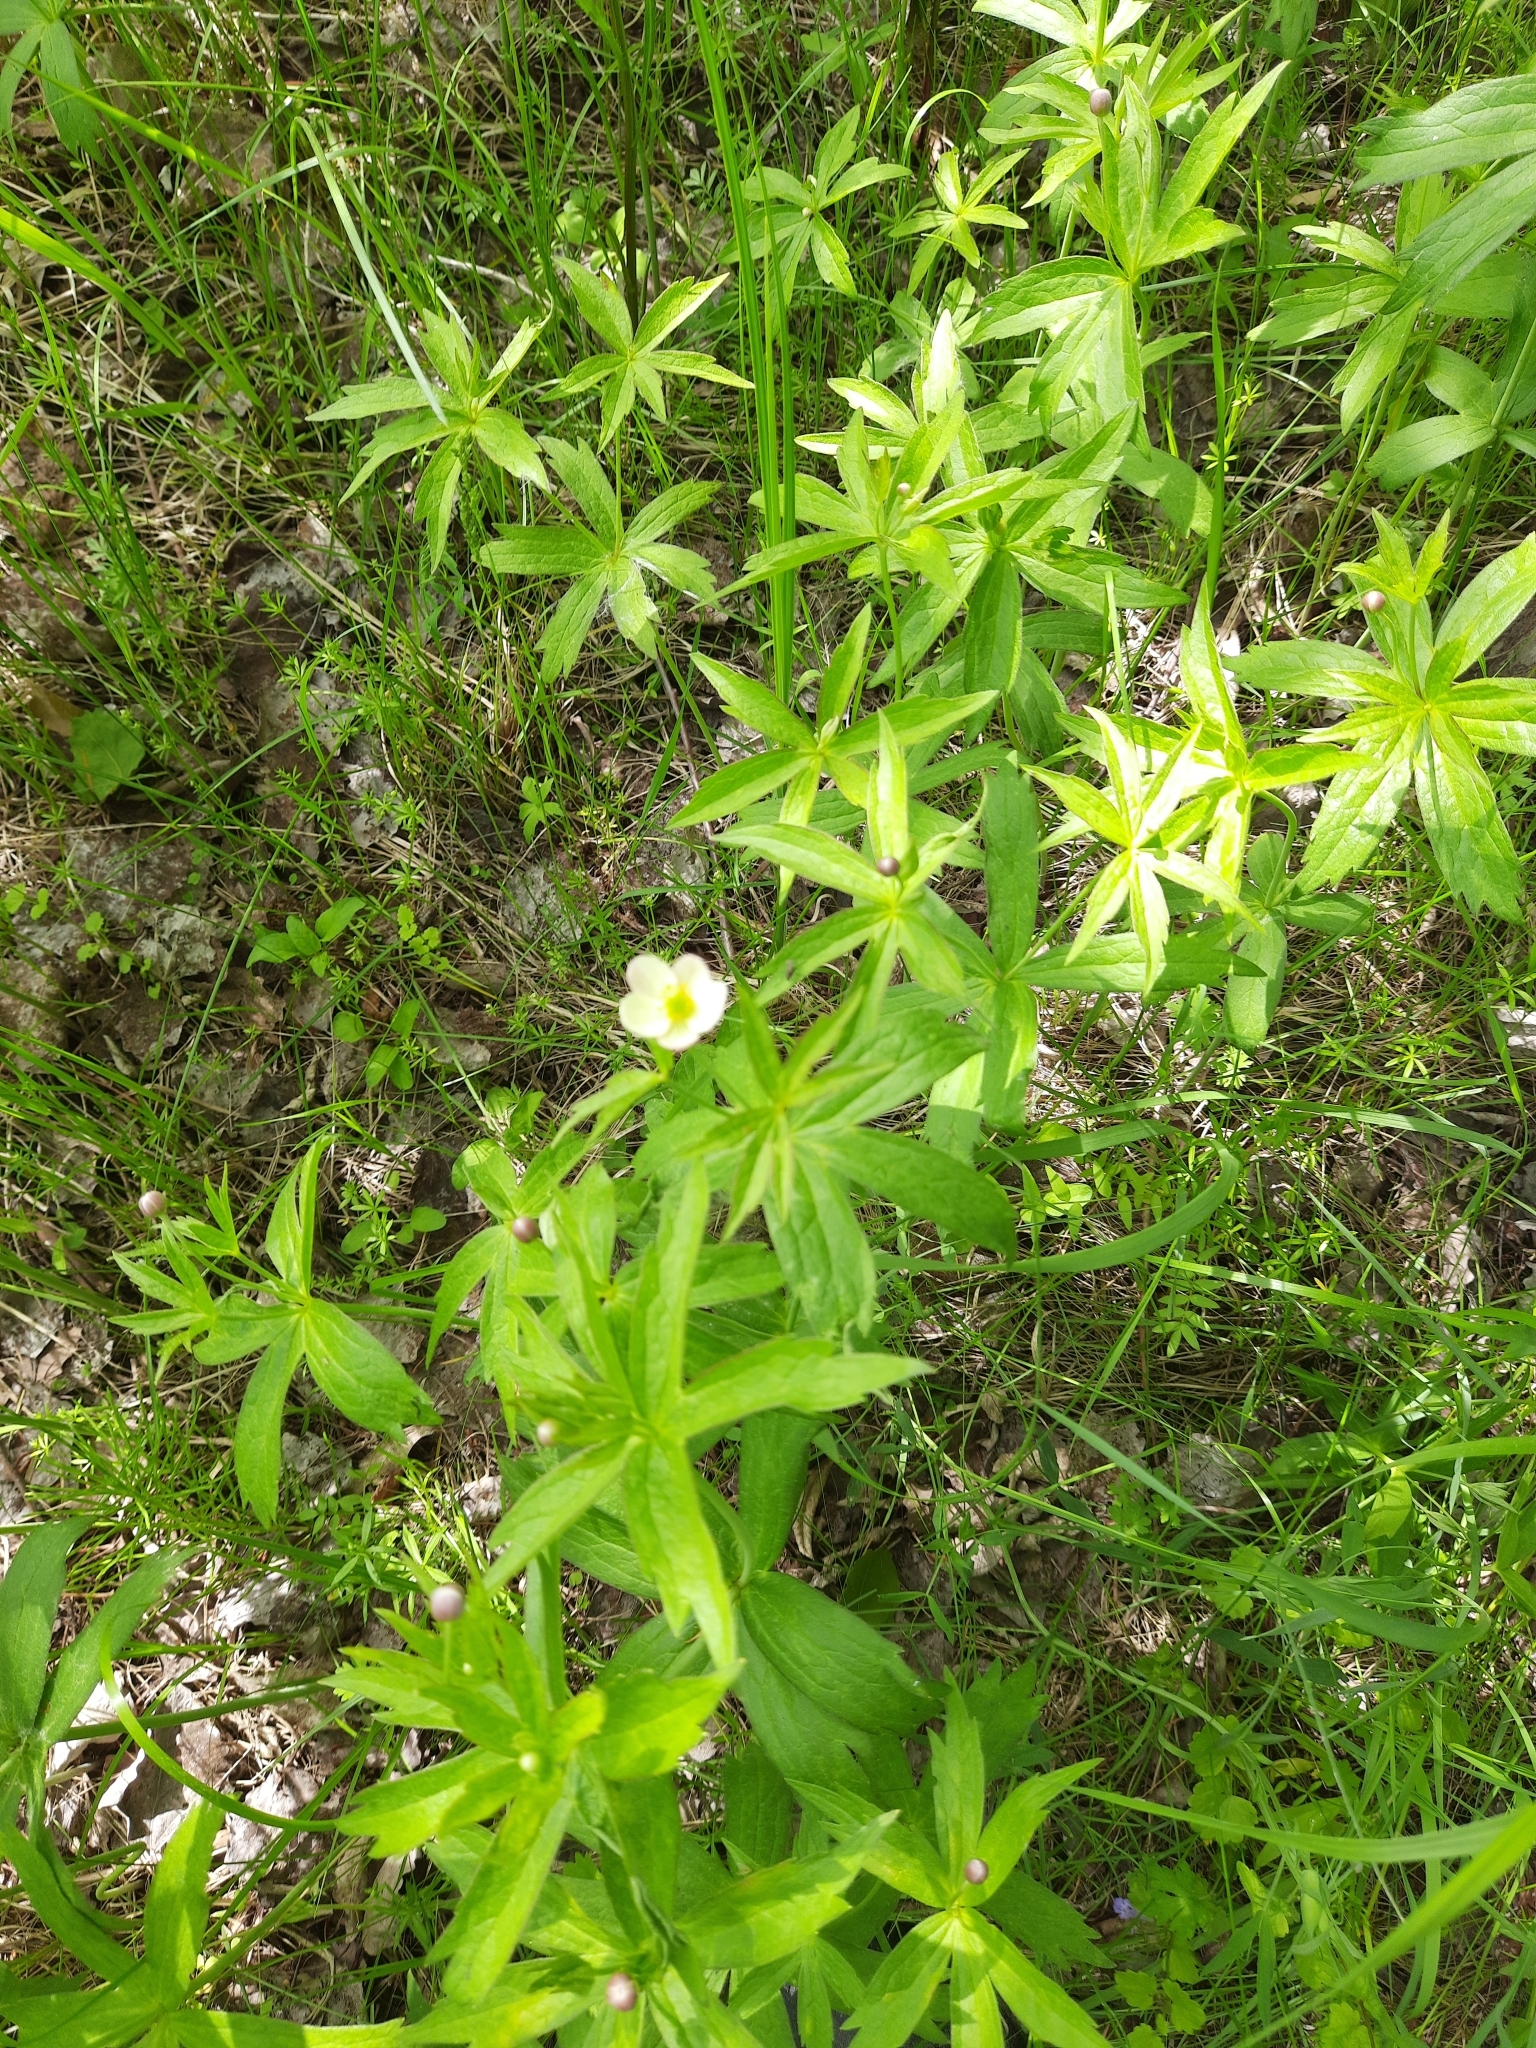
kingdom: Plantae
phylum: Tracheophyta
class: Magnoliopsida
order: Ranunculales
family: Ranunculaceae
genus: Anemonastrum
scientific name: Anemonastrum dichotomum
